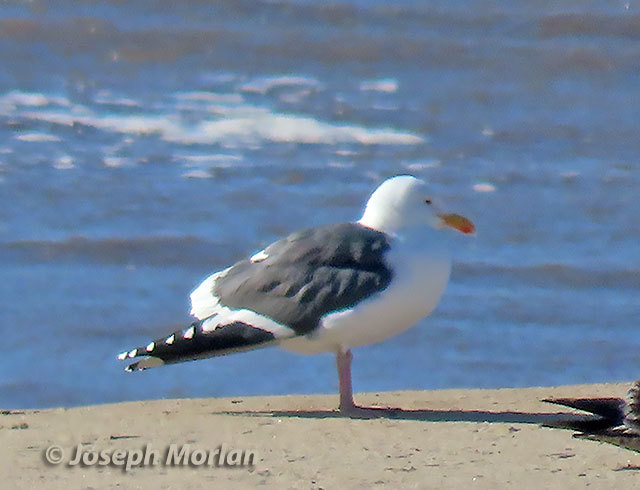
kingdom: Animalia
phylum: Chordata
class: Aves
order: Charadriiformes
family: Laridae
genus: Larus
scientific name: Larus occidentalis
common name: Western gull
